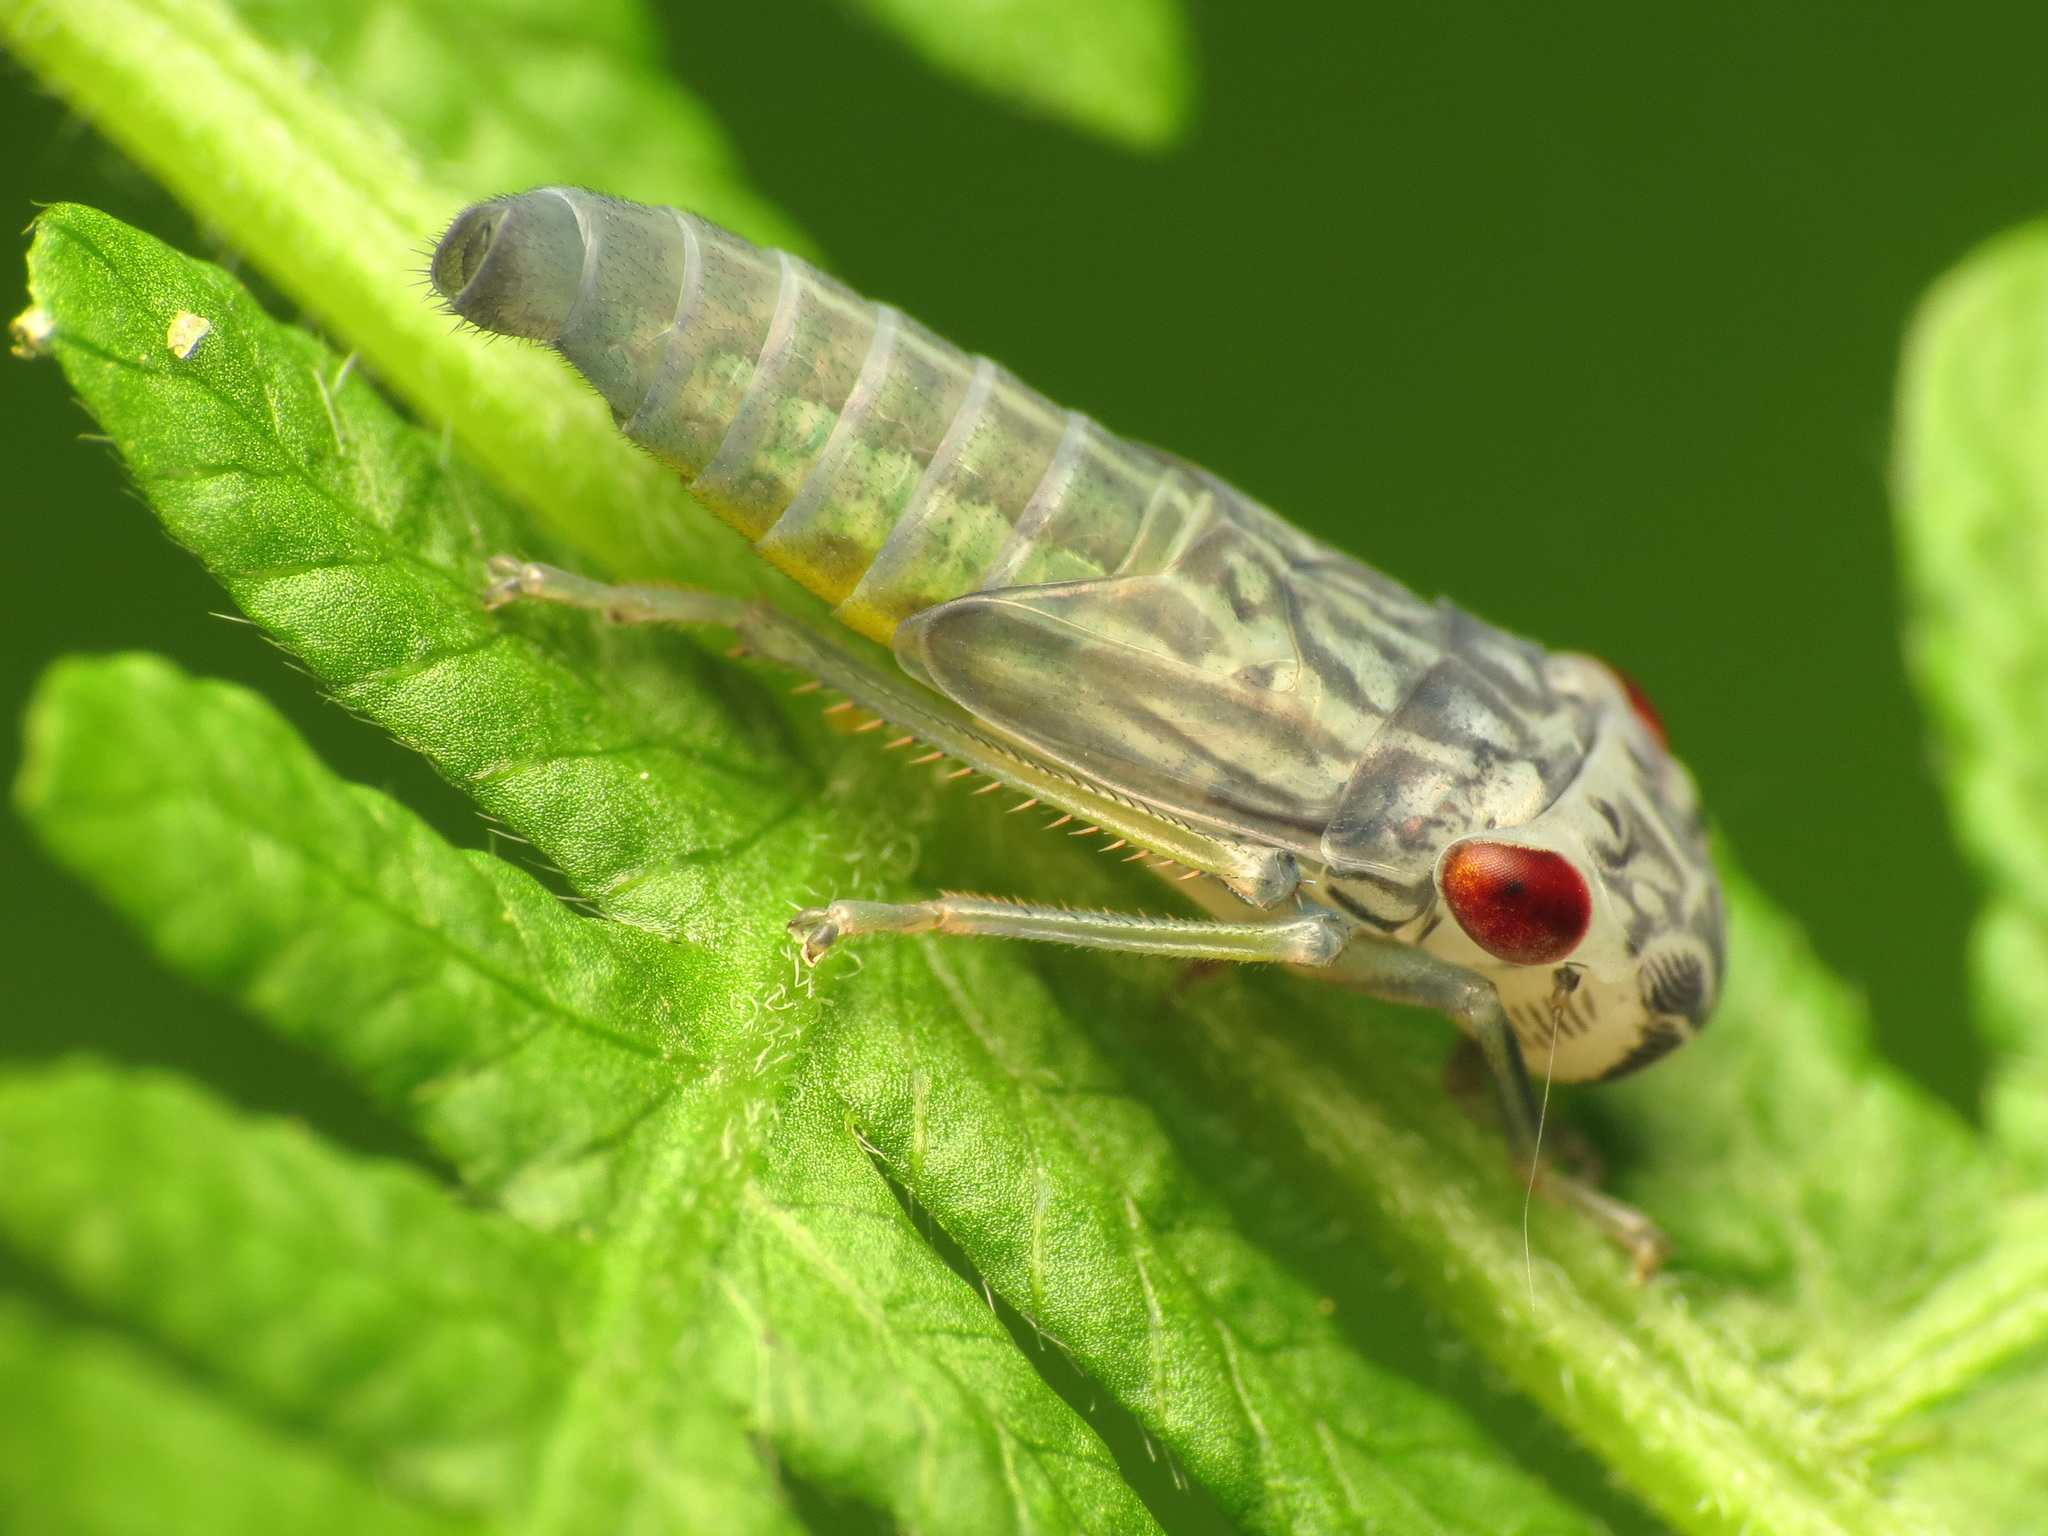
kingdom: Animalia
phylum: Arthropoda
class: Insecta
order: Hemiptera
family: Cicadellidae
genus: Oncometopia
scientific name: Oncometopia orbona
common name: Broad-headed sharpshooter
